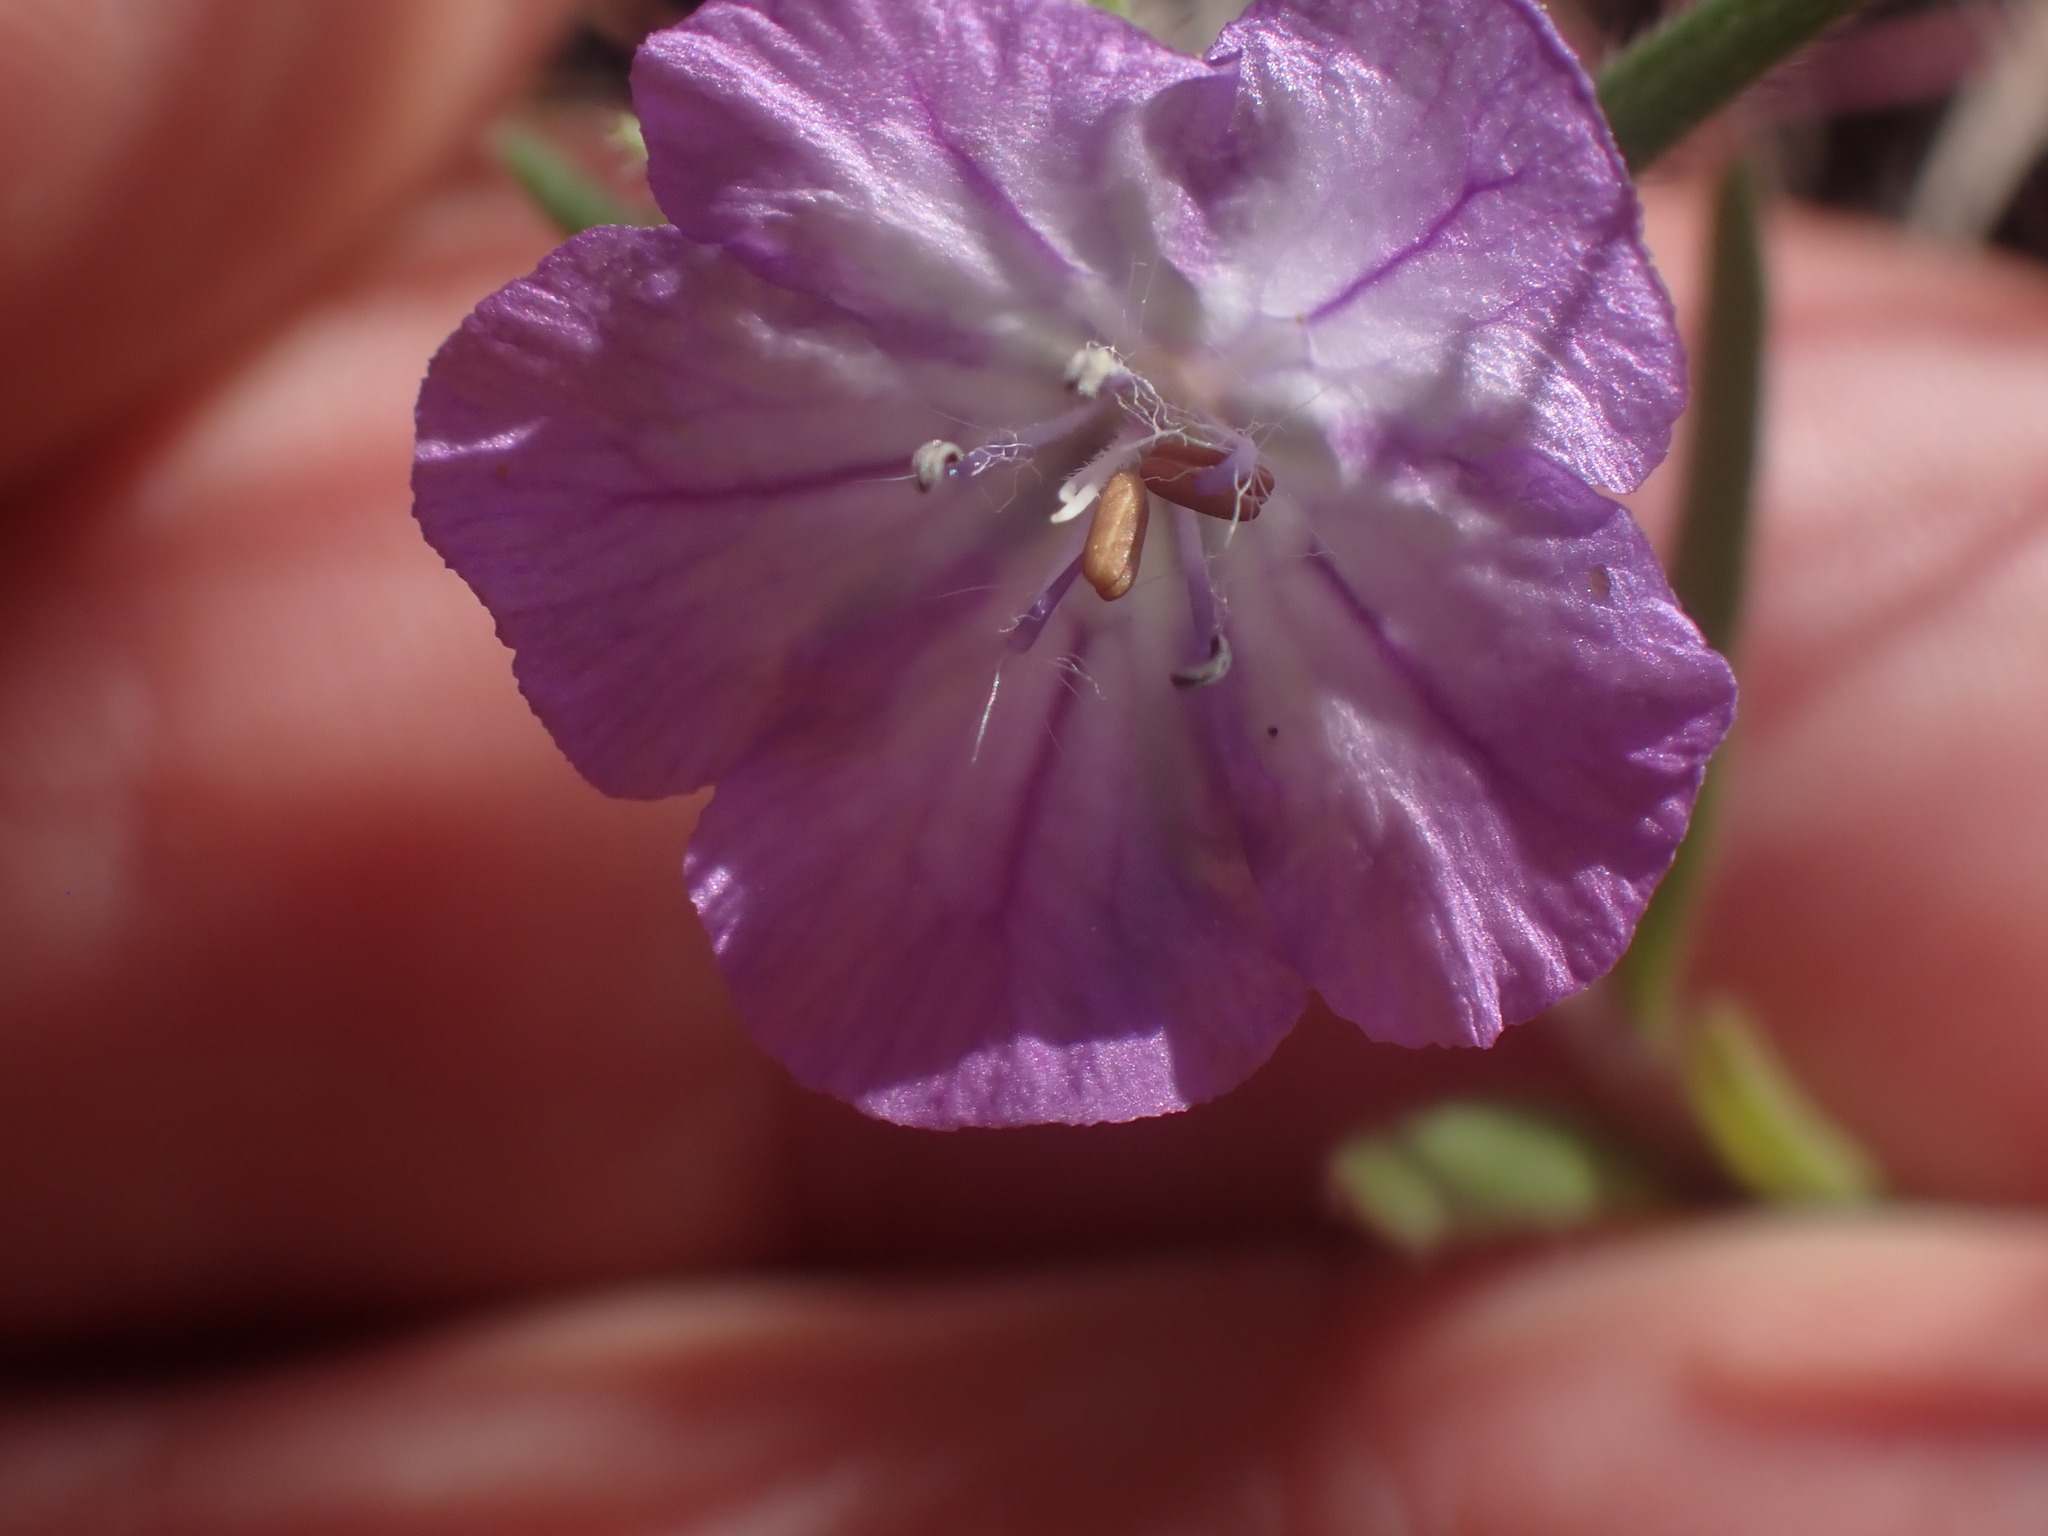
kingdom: Plantae
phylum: Tracheophyta
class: Magnoliopsida
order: Boraginales
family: Hydrophyllaceae
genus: Phacelia
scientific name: Phacelia linearis
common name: Linear-leaved phacelia
